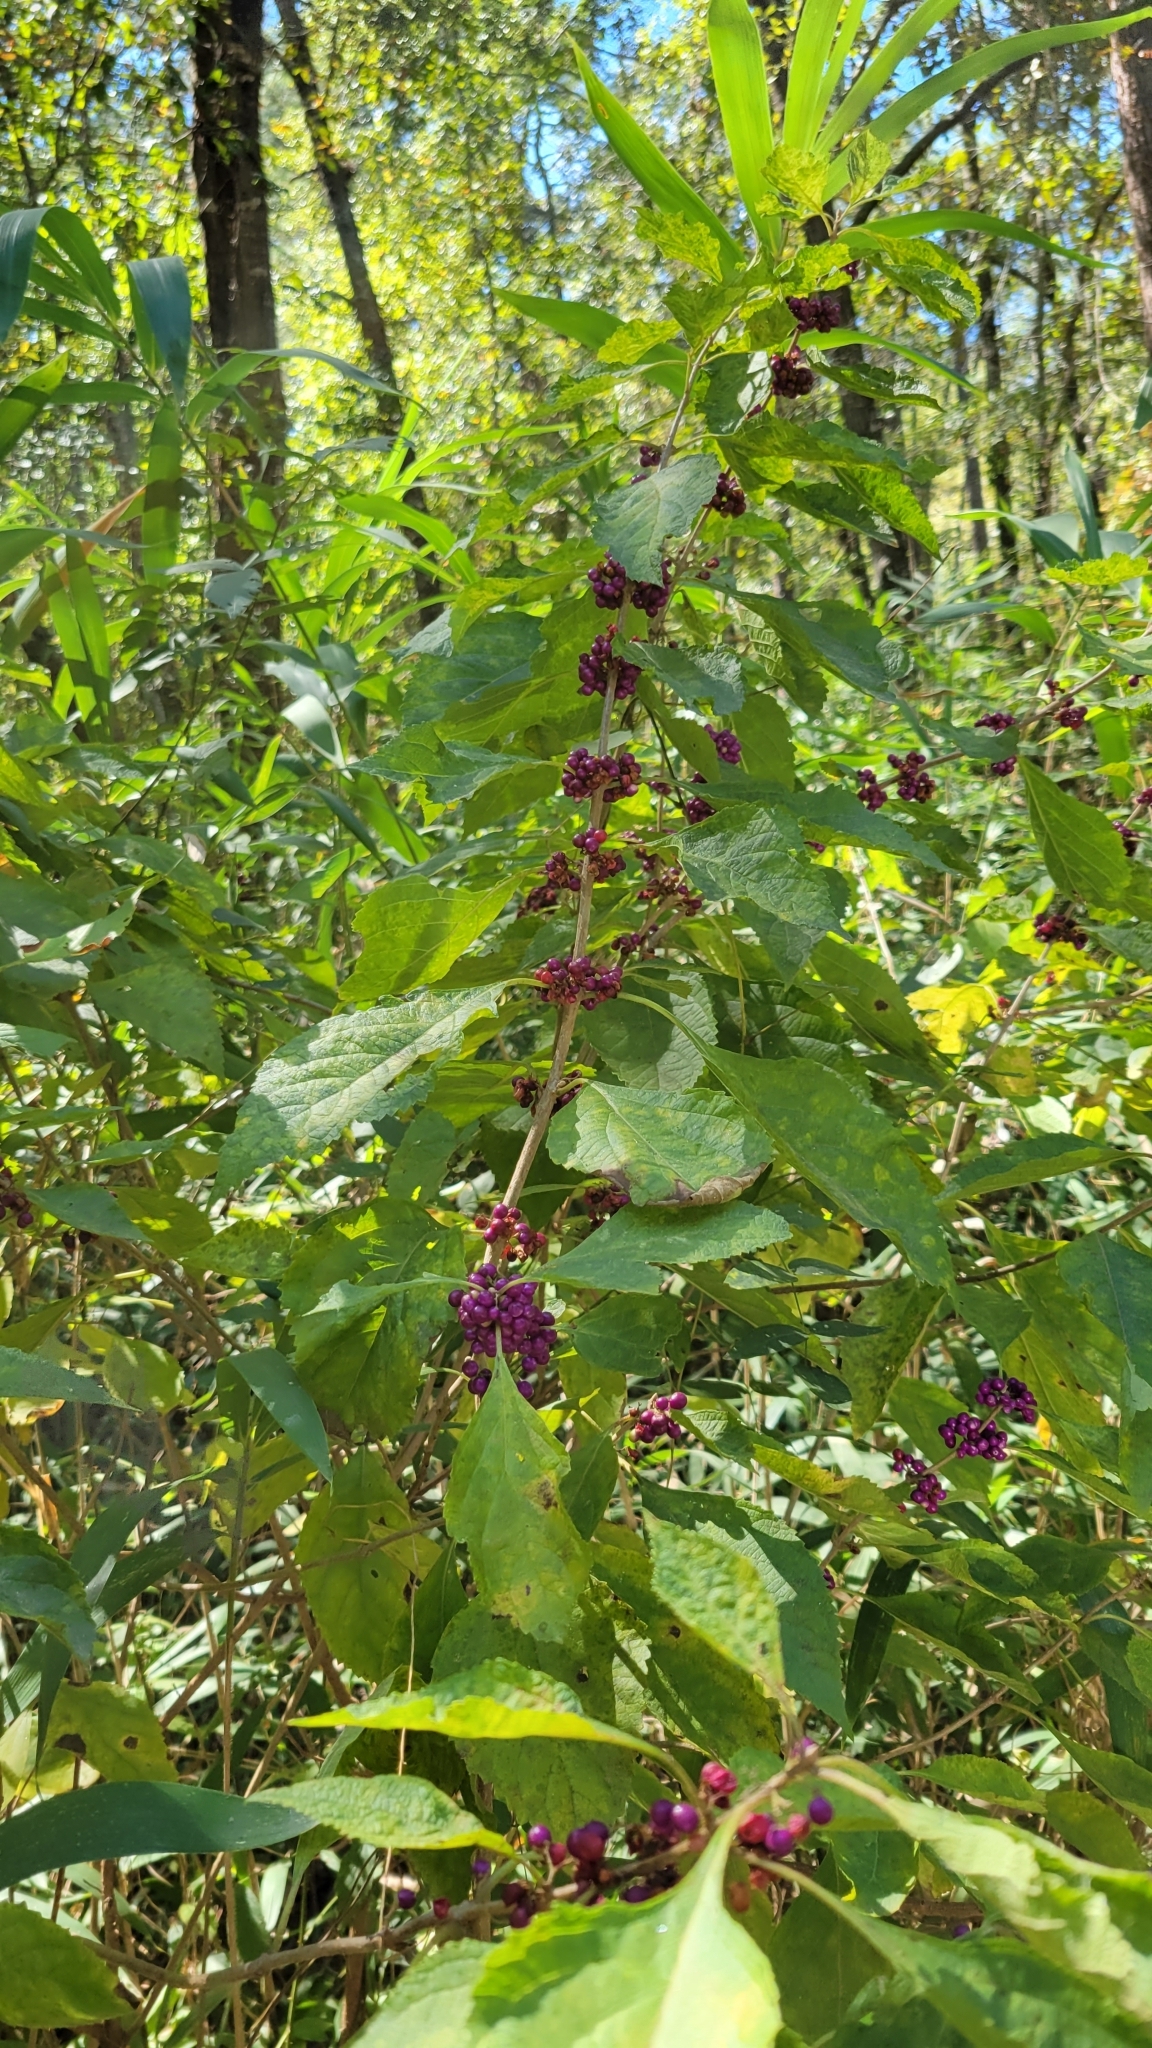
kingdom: Plantae
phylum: Tracheophyta
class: Magnoliopsida
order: Lamiales
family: Lamiaceae
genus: Callicarpa
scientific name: Callicarpa americana
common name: American beautyberry
